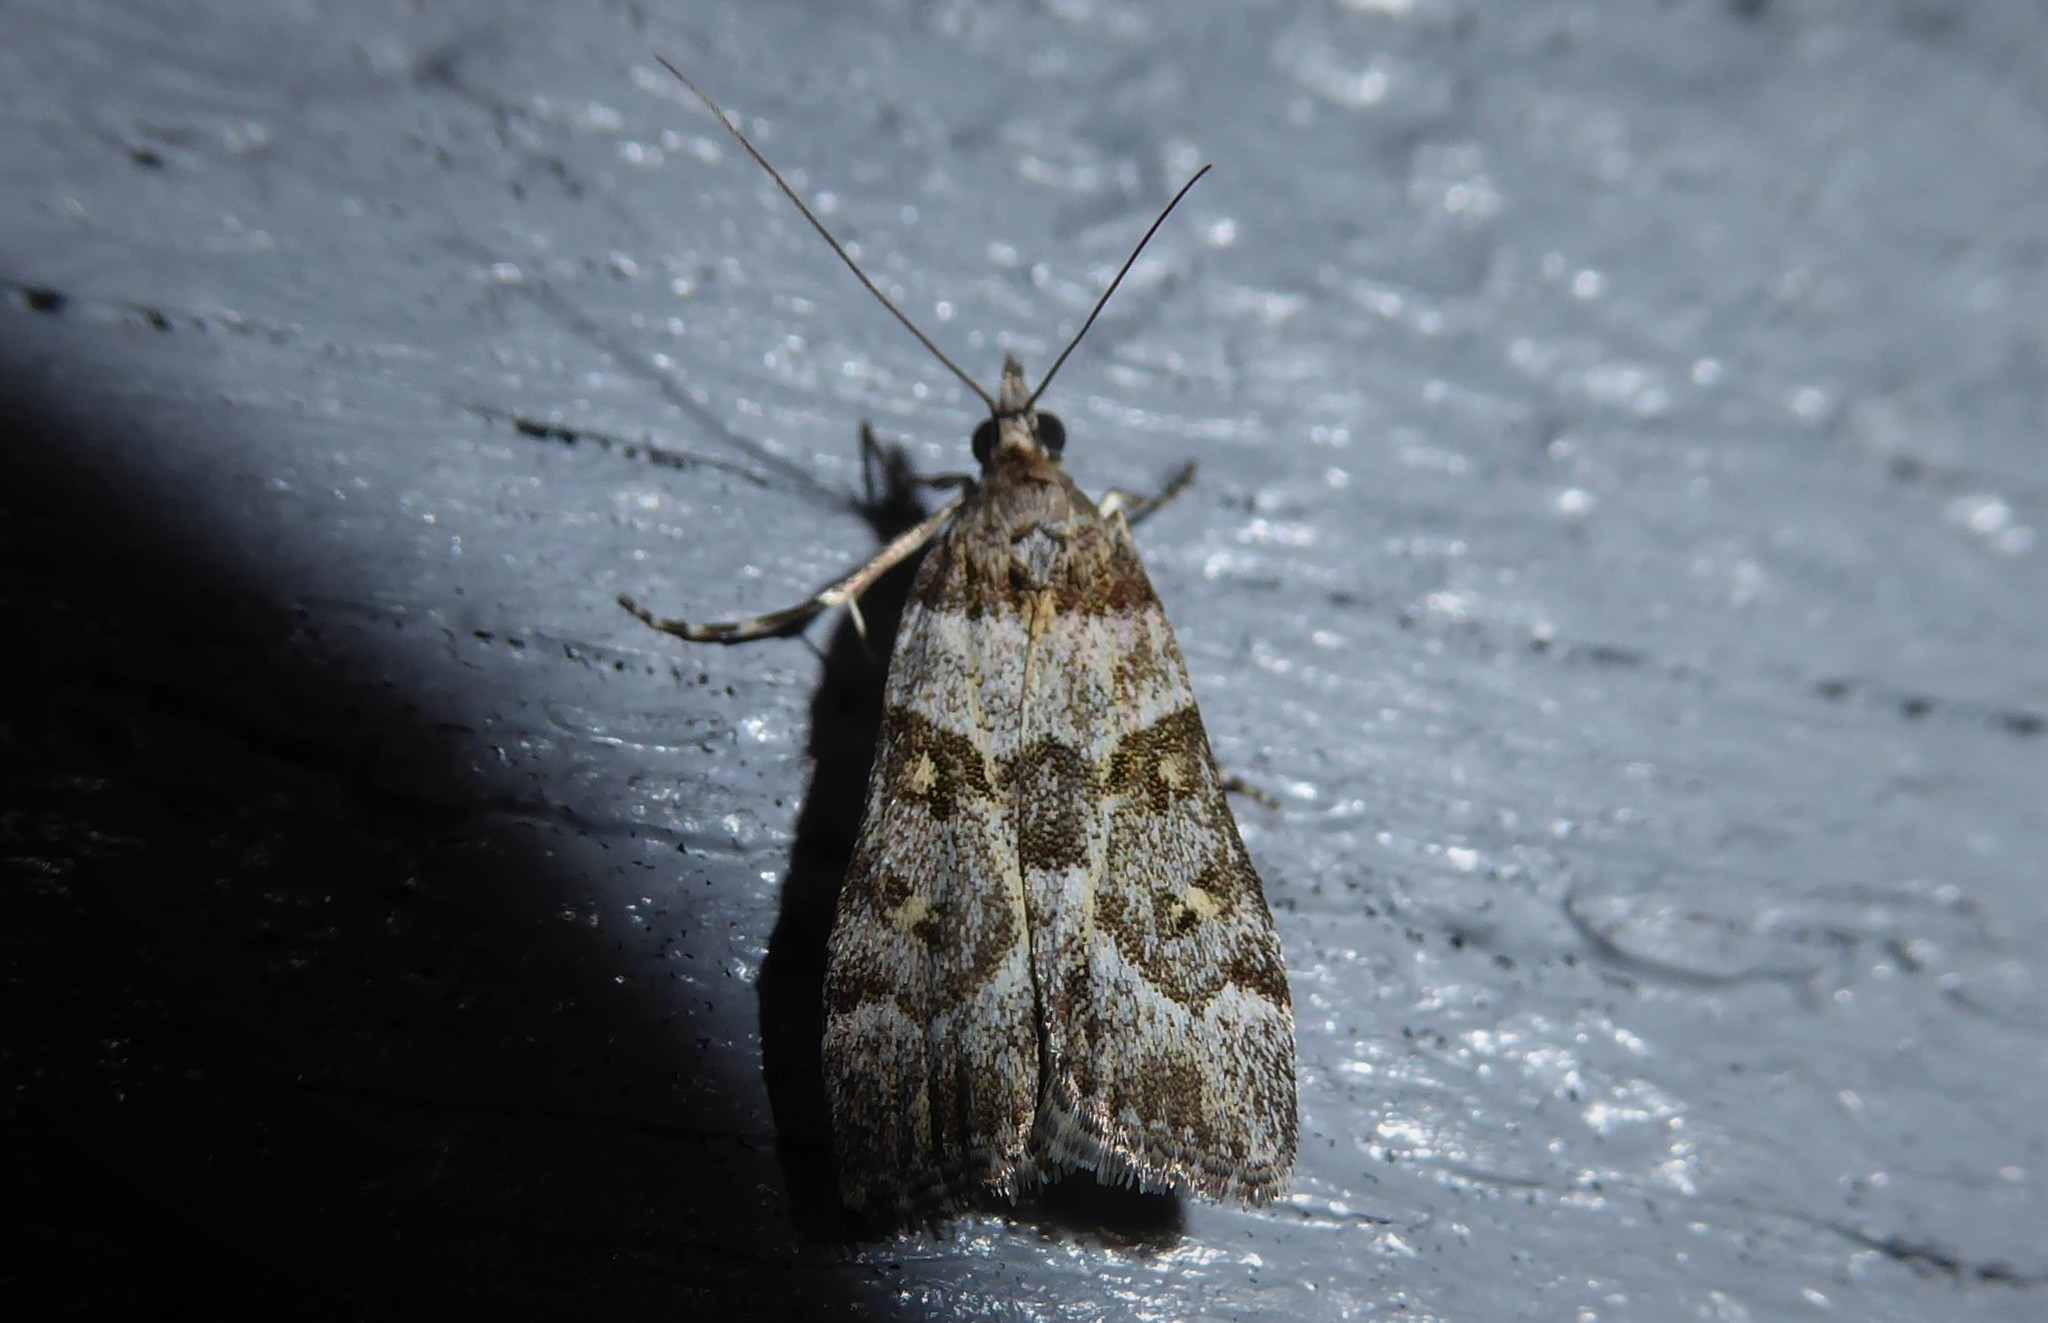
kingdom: Animalia
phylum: Arthropoda
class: Insecta
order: Lepidoptera
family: Crambidae
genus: Eudonia
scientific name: Eudonia diphtheralis
